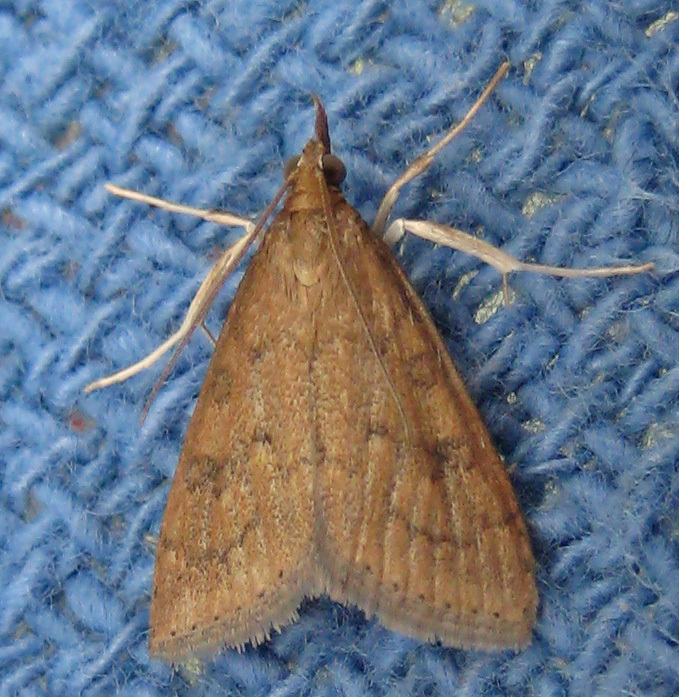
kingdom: Animalia
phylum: Arthropoda
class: Insecta
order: Lepidoptera
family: Crambidae
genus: Udea
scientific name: Udea rubigalis
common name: Celery leaftier moth
